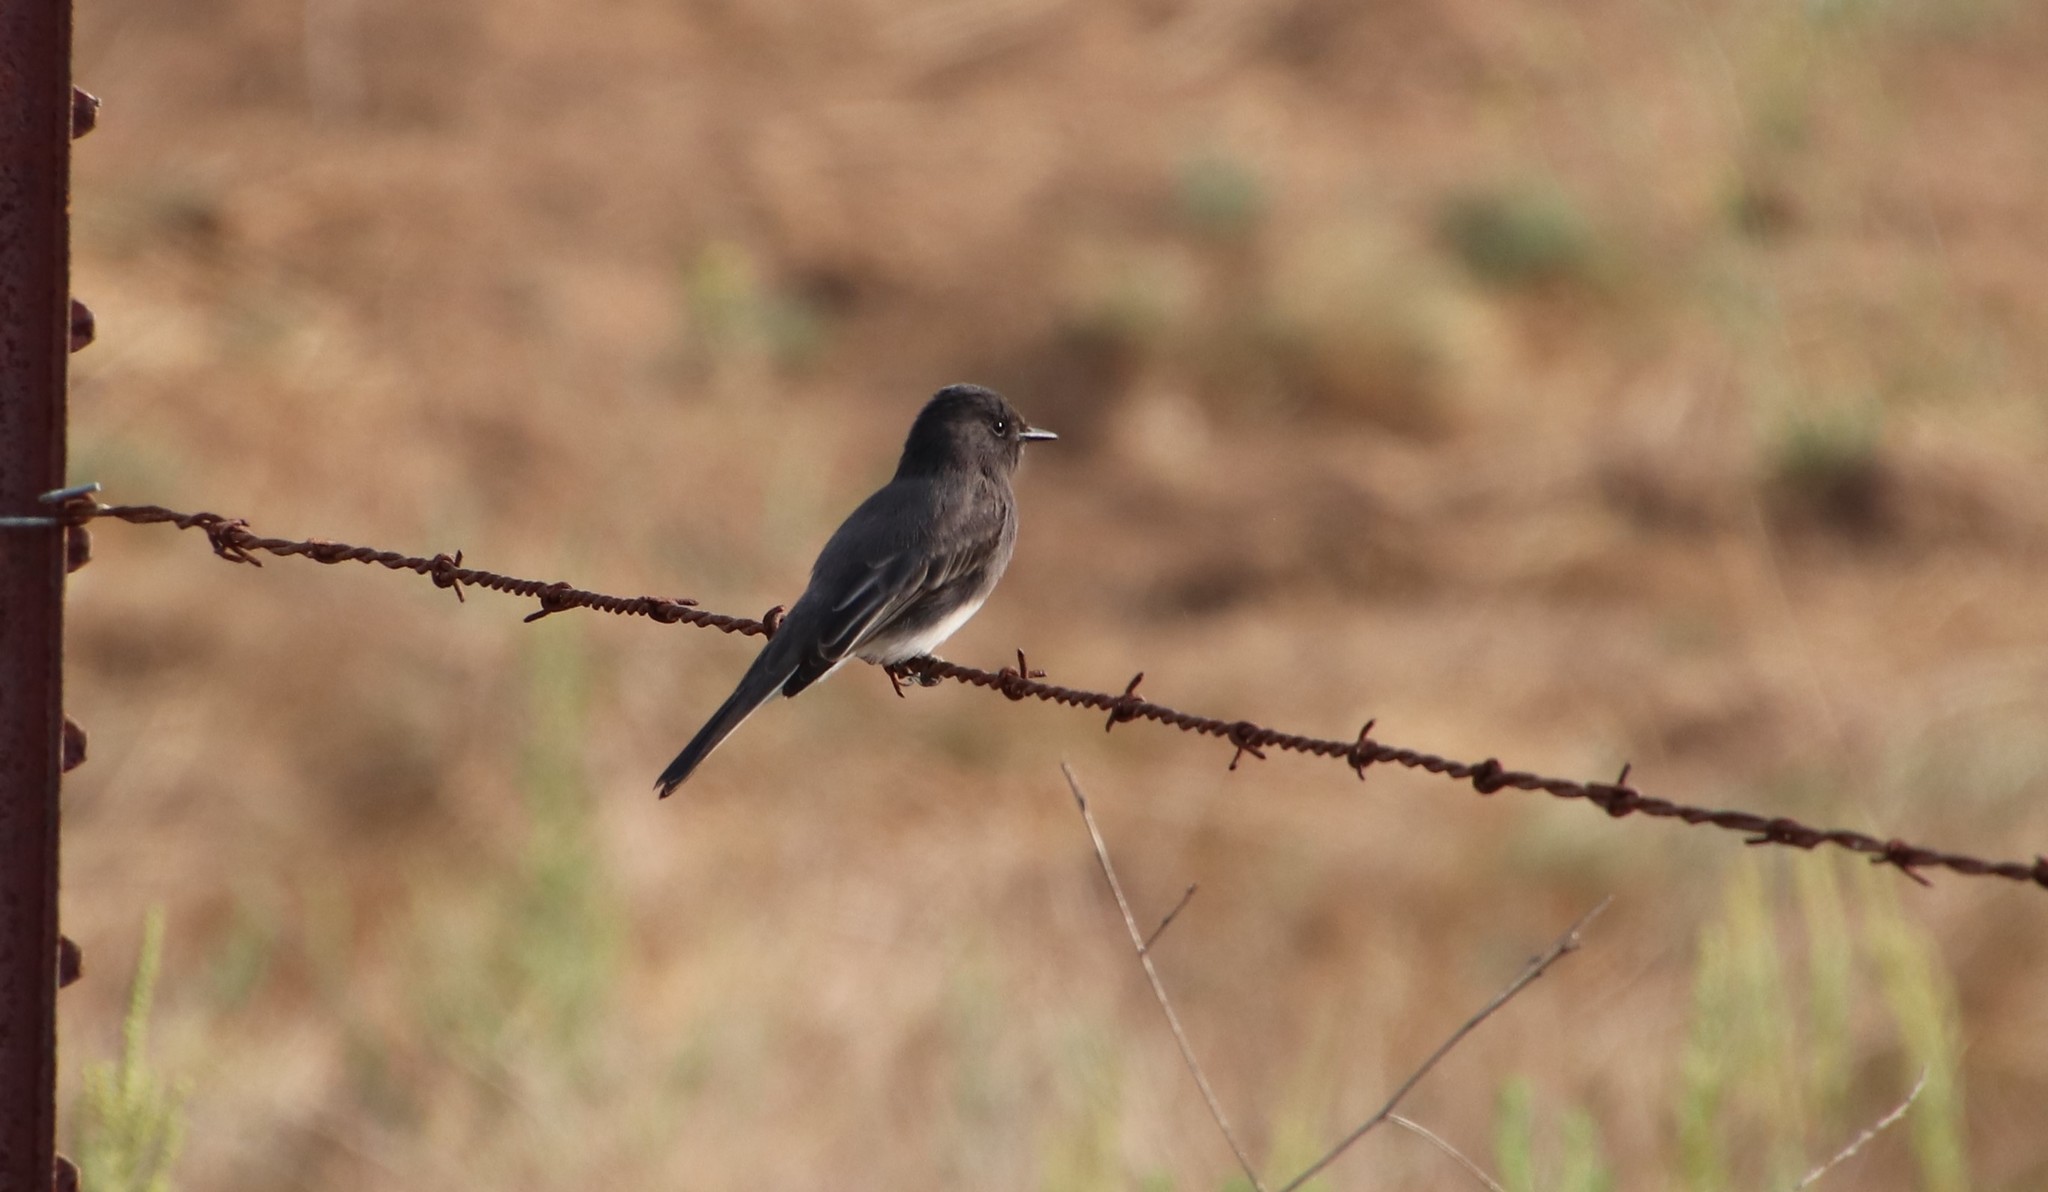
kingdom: Animalia
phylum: Chordata
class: Aves
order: Passeriformes
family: Tyrannidae
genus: Sayornis
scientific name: Sayornis nigricans
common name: Black phoebe
